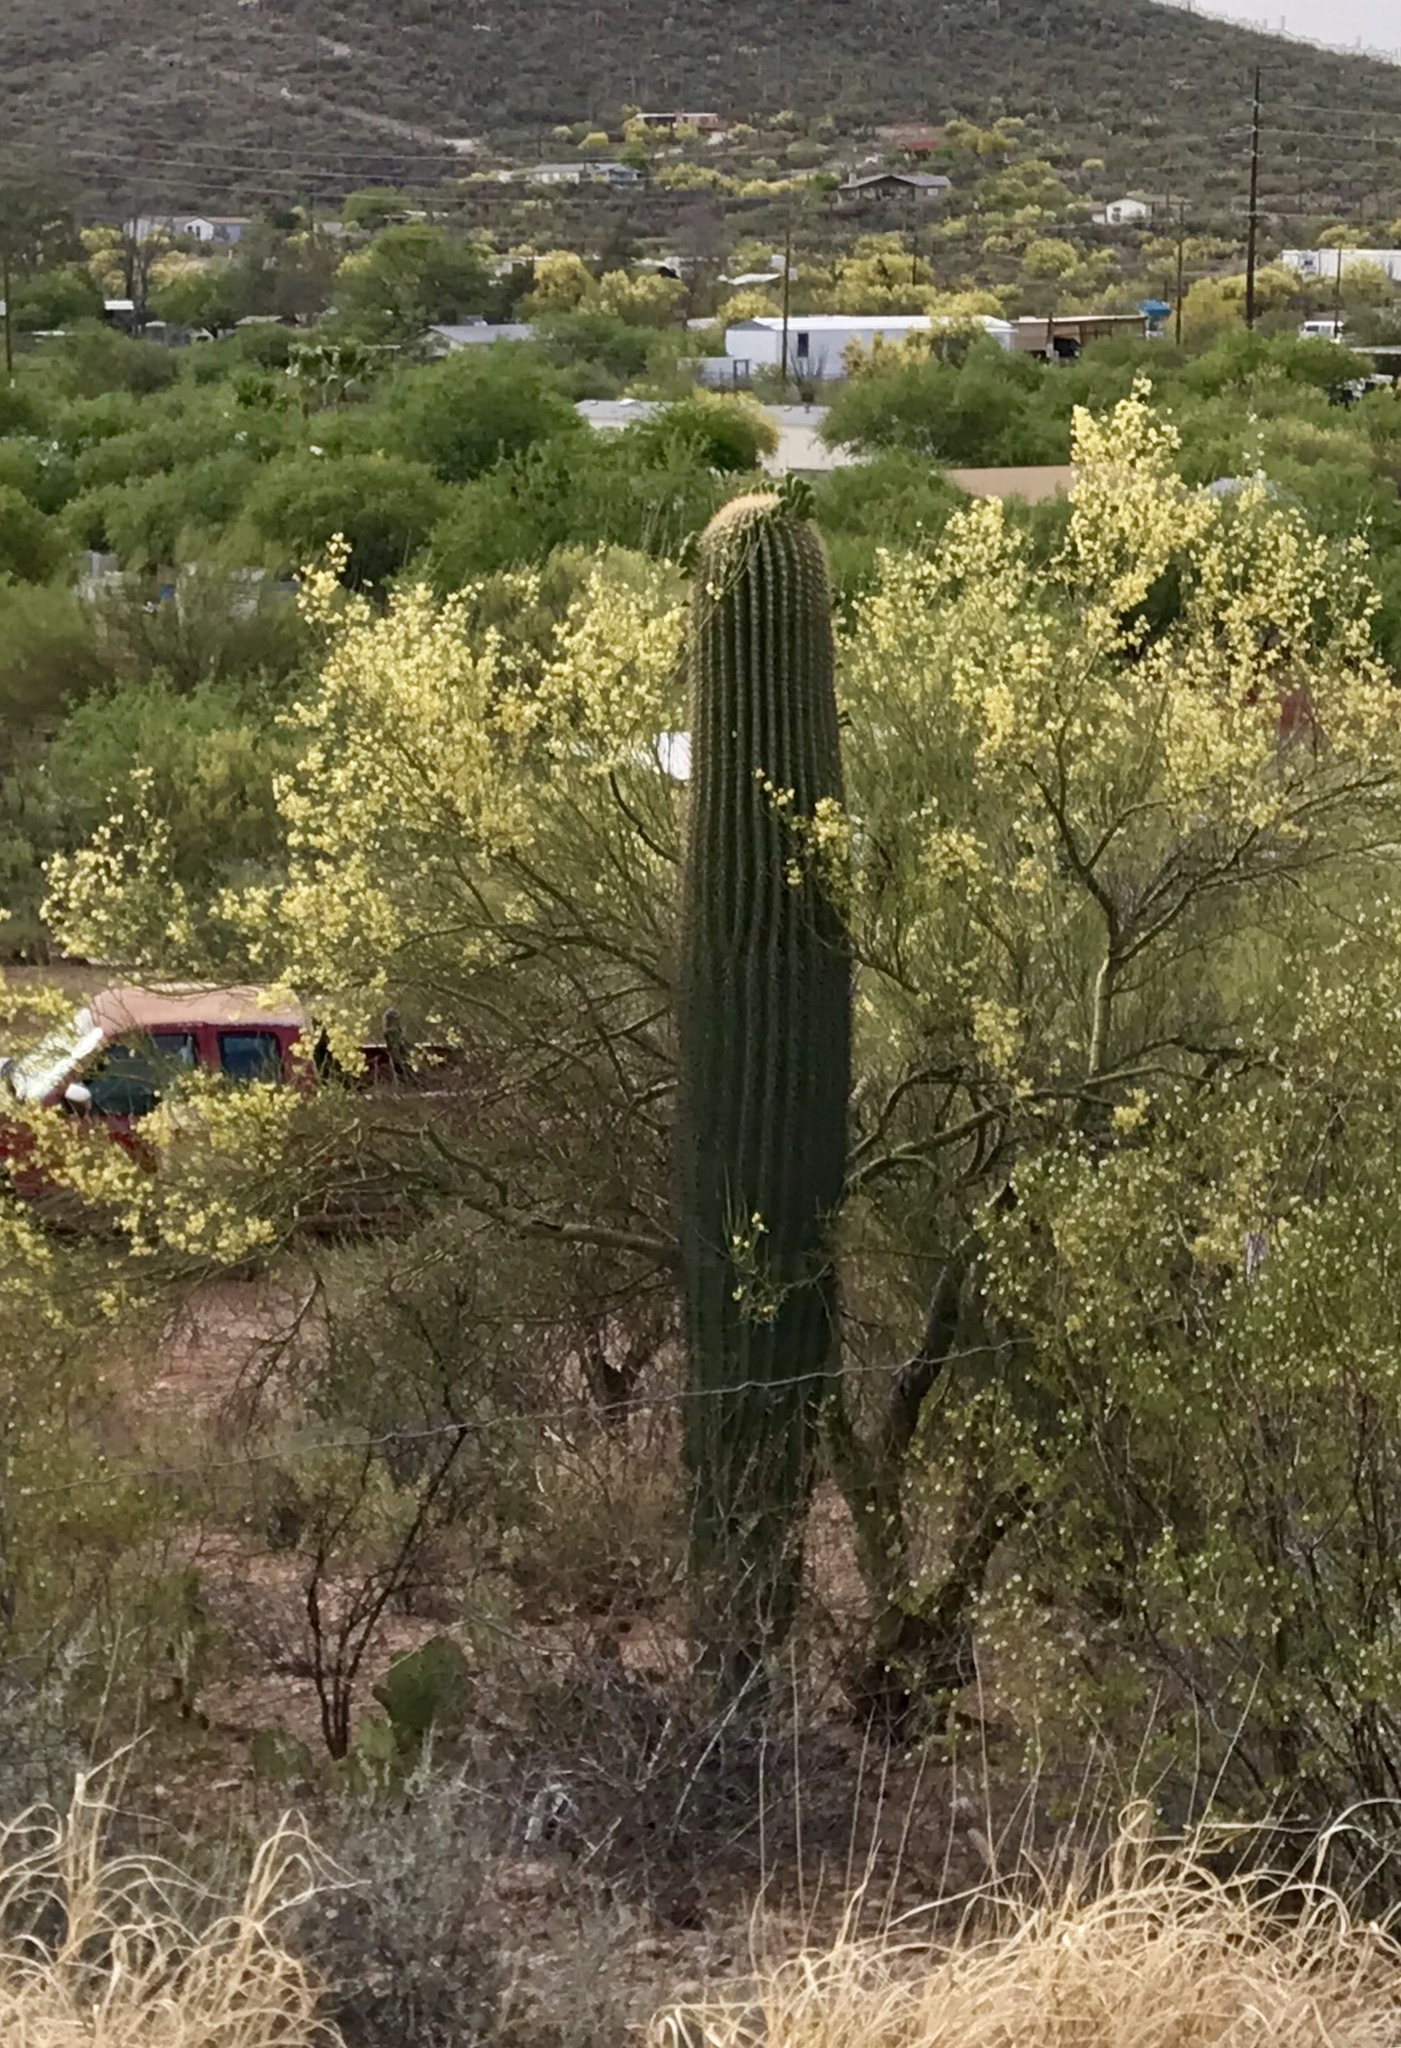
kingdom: Plantae
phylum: Tracheophyta
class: Magnoliopsida
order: Caryophyllales
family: Cactaceae
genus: Carnegiea
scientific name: Carnegiea gigantea
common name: Saguaro
